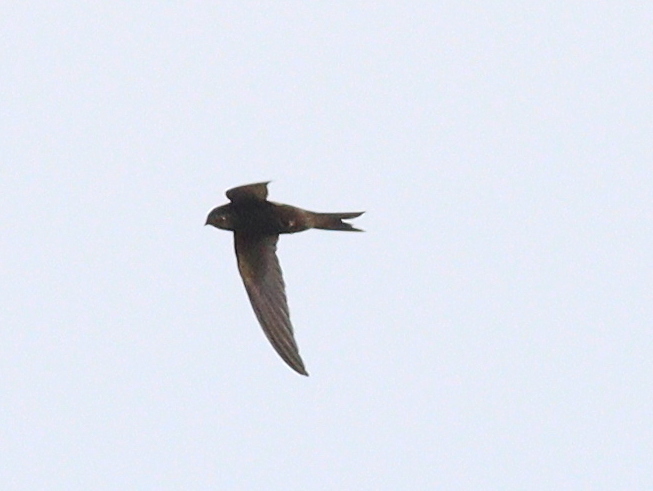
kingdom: Animalia
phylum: Chordata
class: Aves
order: Apodiformes
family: Apodidae
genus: Apus
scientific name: Apus apus
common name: Common swift
